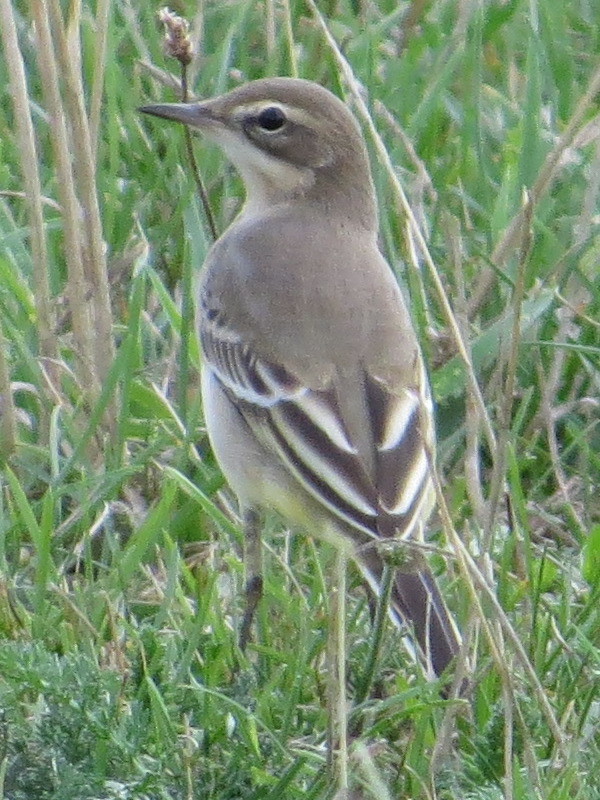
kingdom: Animalia
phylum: Chordata
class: Aves
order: Passeriformes
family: Motacillidae
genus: Motacilla
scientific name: Motacilla flava
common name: Western yellow wagtail
